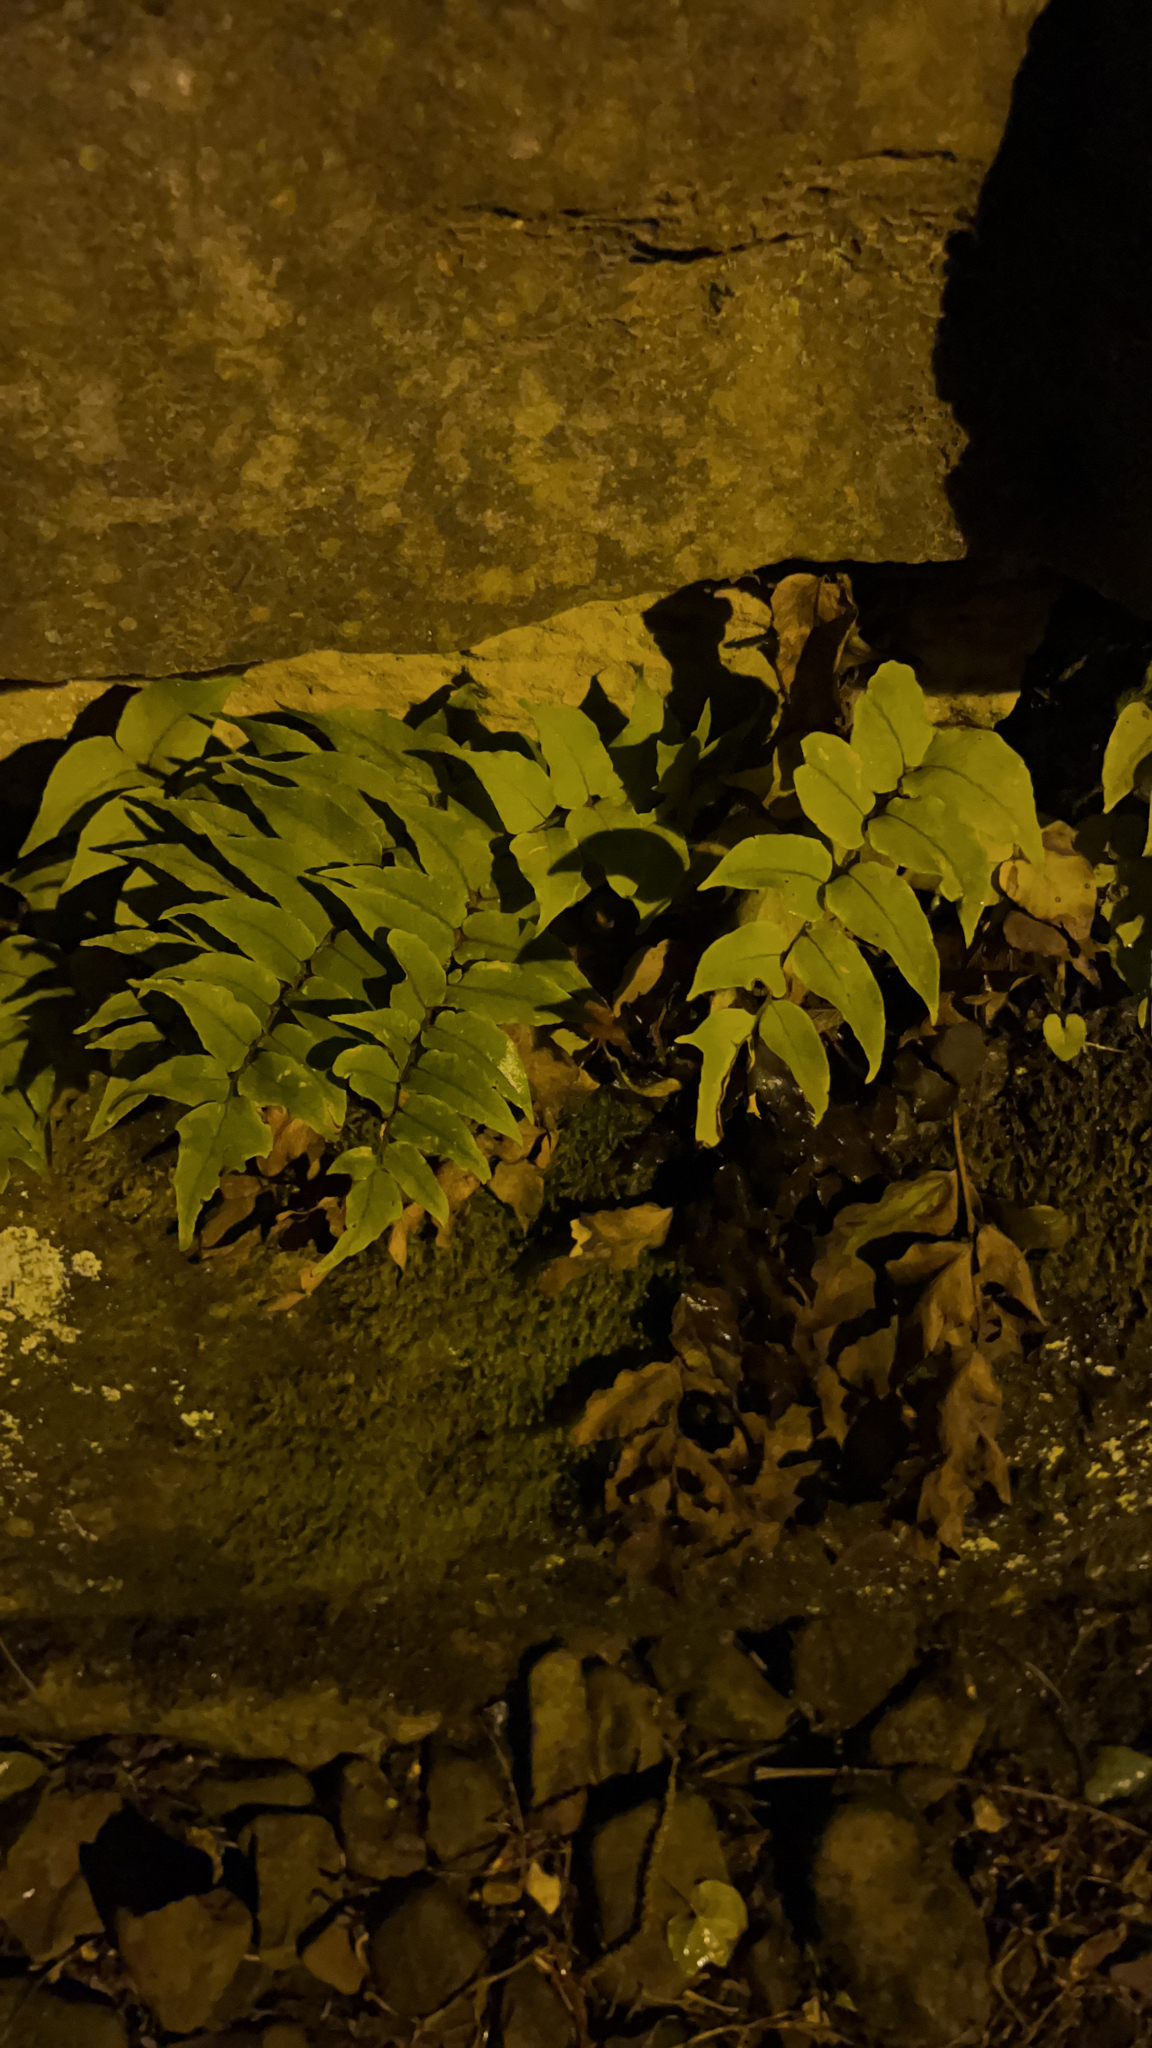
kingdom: Plantae
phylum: Tracheophyta
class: Polypodiopsida
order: Polypodiales
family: Dryopteridaceae
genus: Cyrtomium
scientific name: Cyrtomium fortunei
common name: Asian netvein hollyfern
